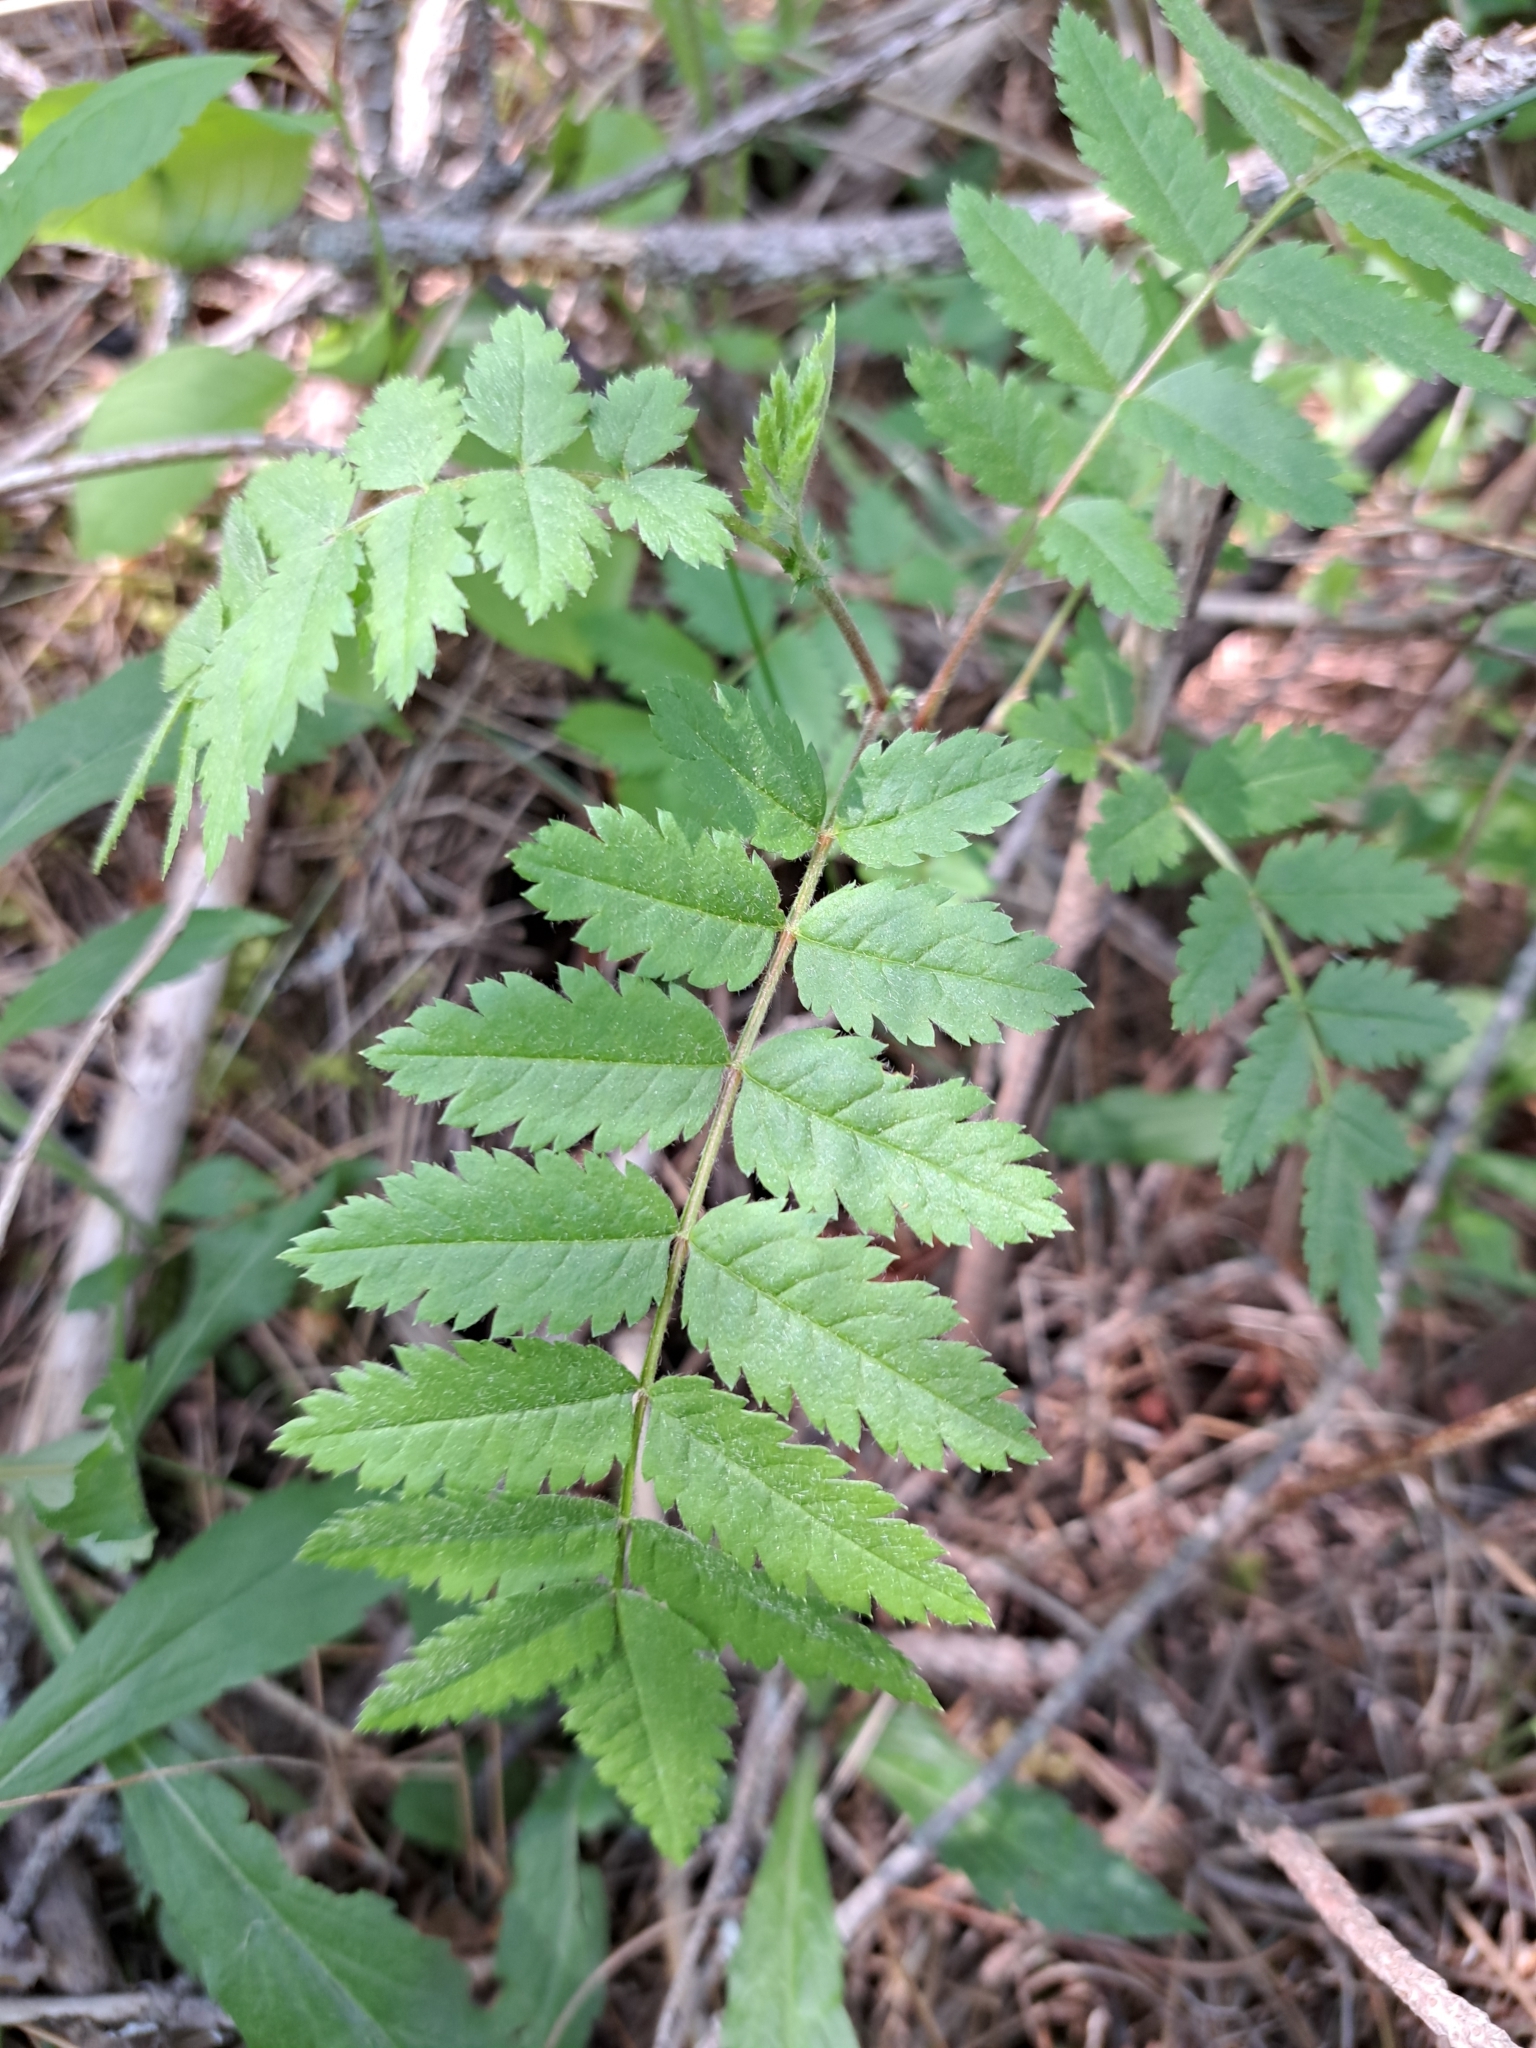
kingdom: Plantae
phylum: Tracheophyta
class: Magnoliopsida
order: Rosales
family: Rosaceae
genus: Sorbus
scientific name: Sorbus aucuparia
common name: Rowan
